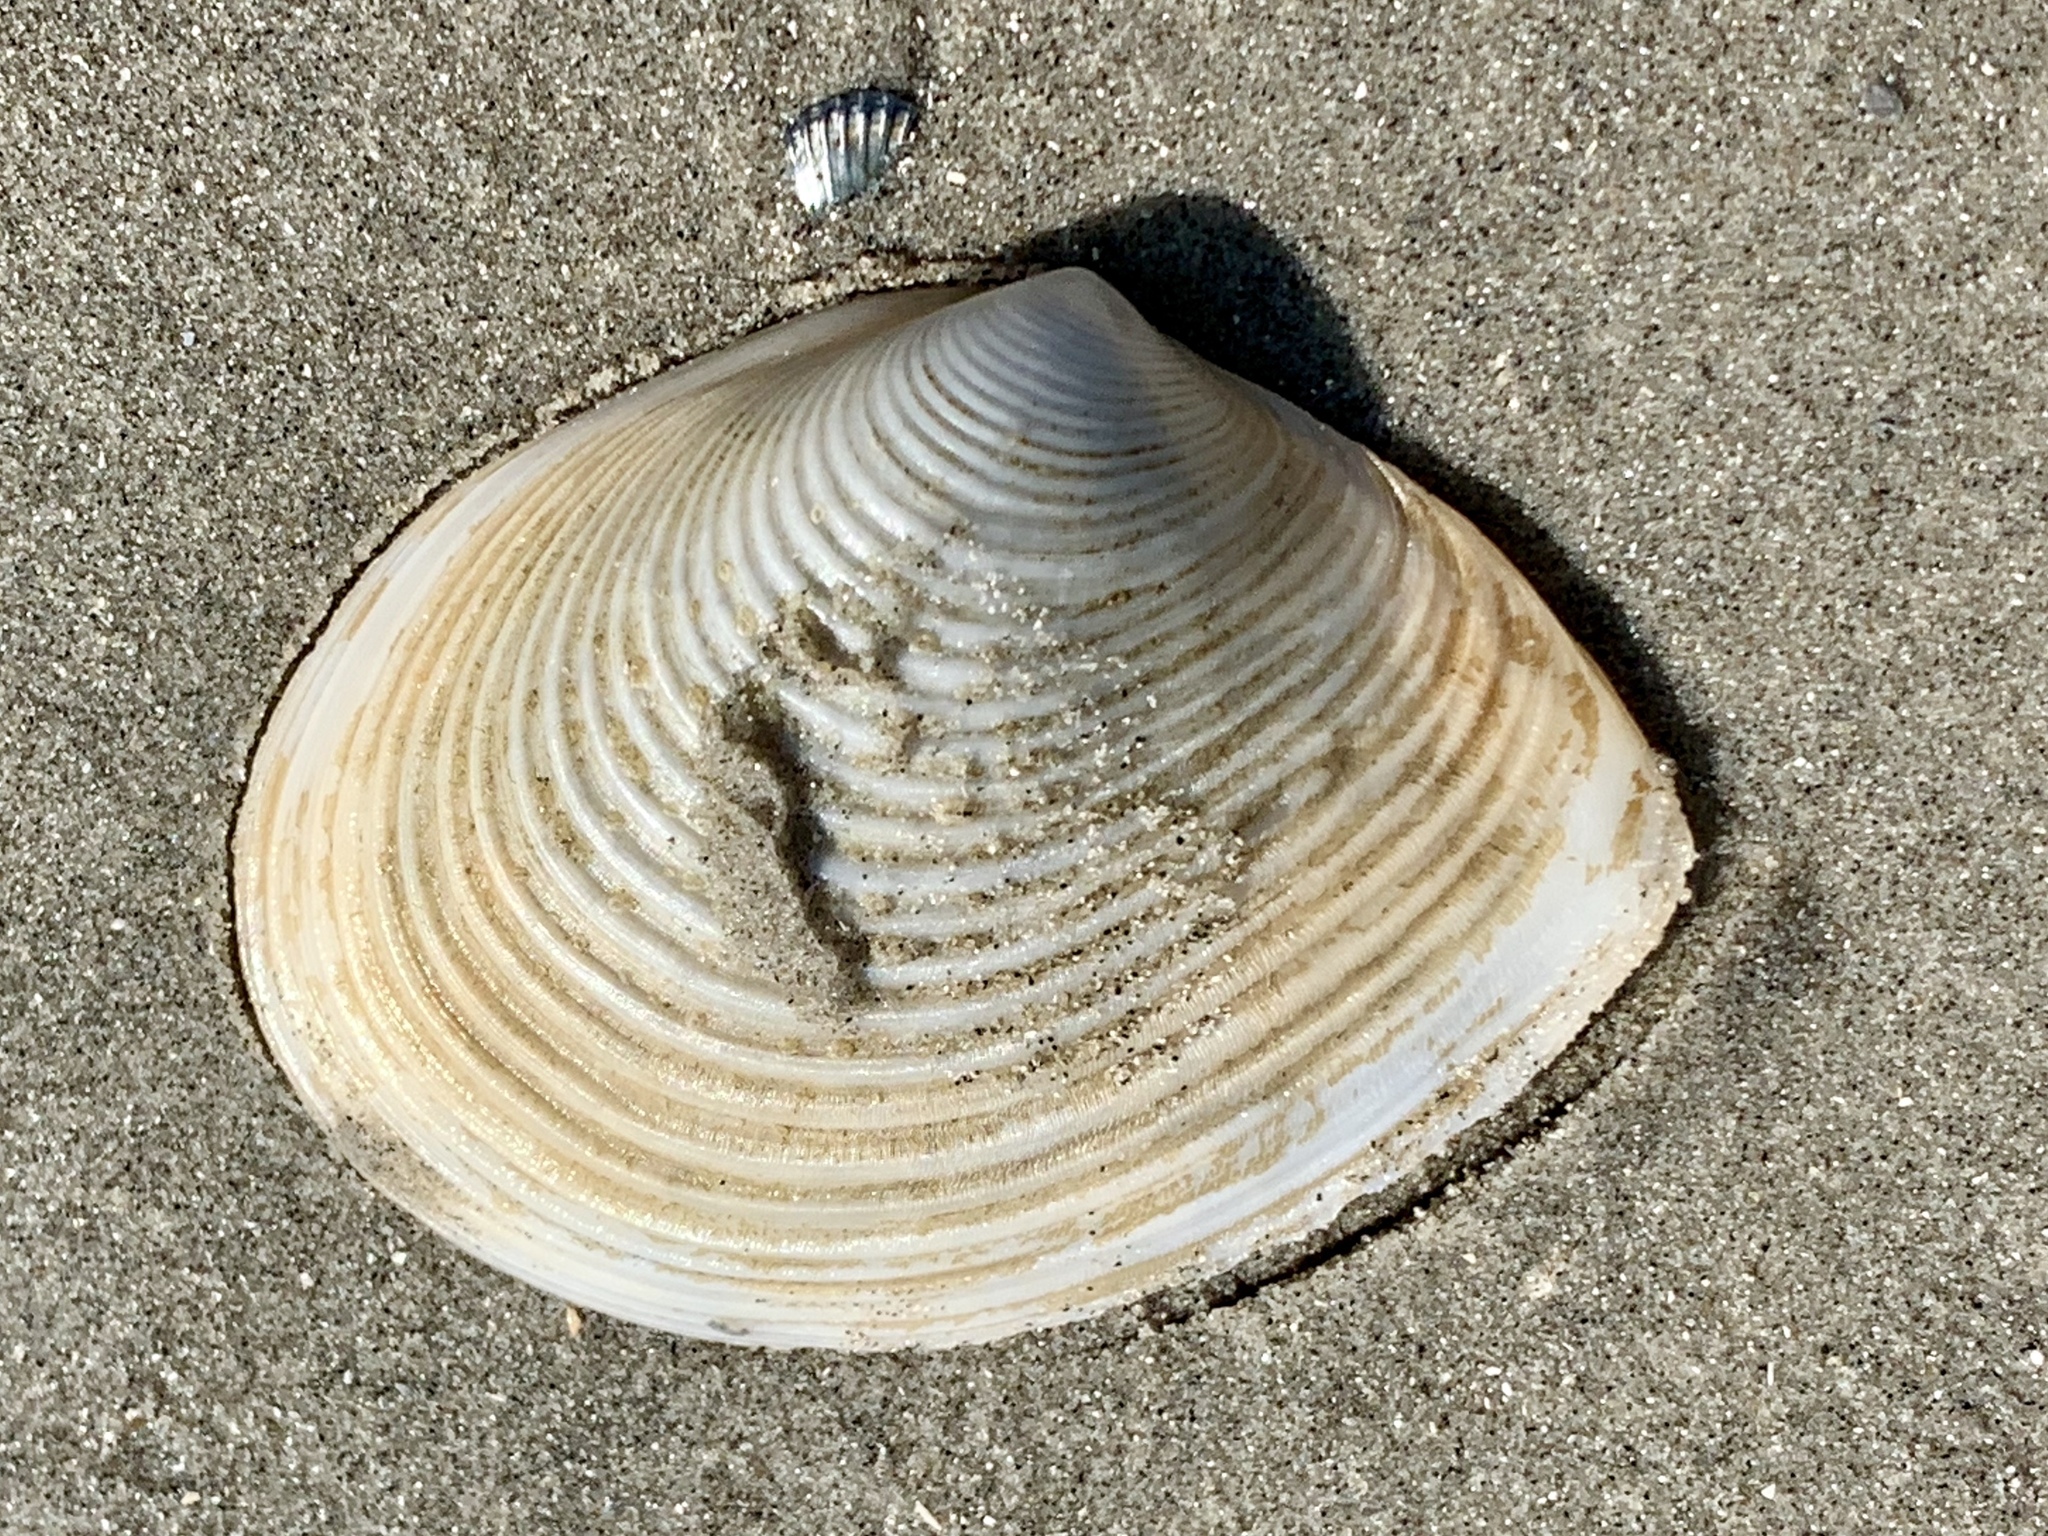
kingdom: Animalia
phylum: Mollusca
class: Bivalvia
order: Venerida
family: Anatinellidae
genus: Raeta
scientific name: Raeta plicatella
